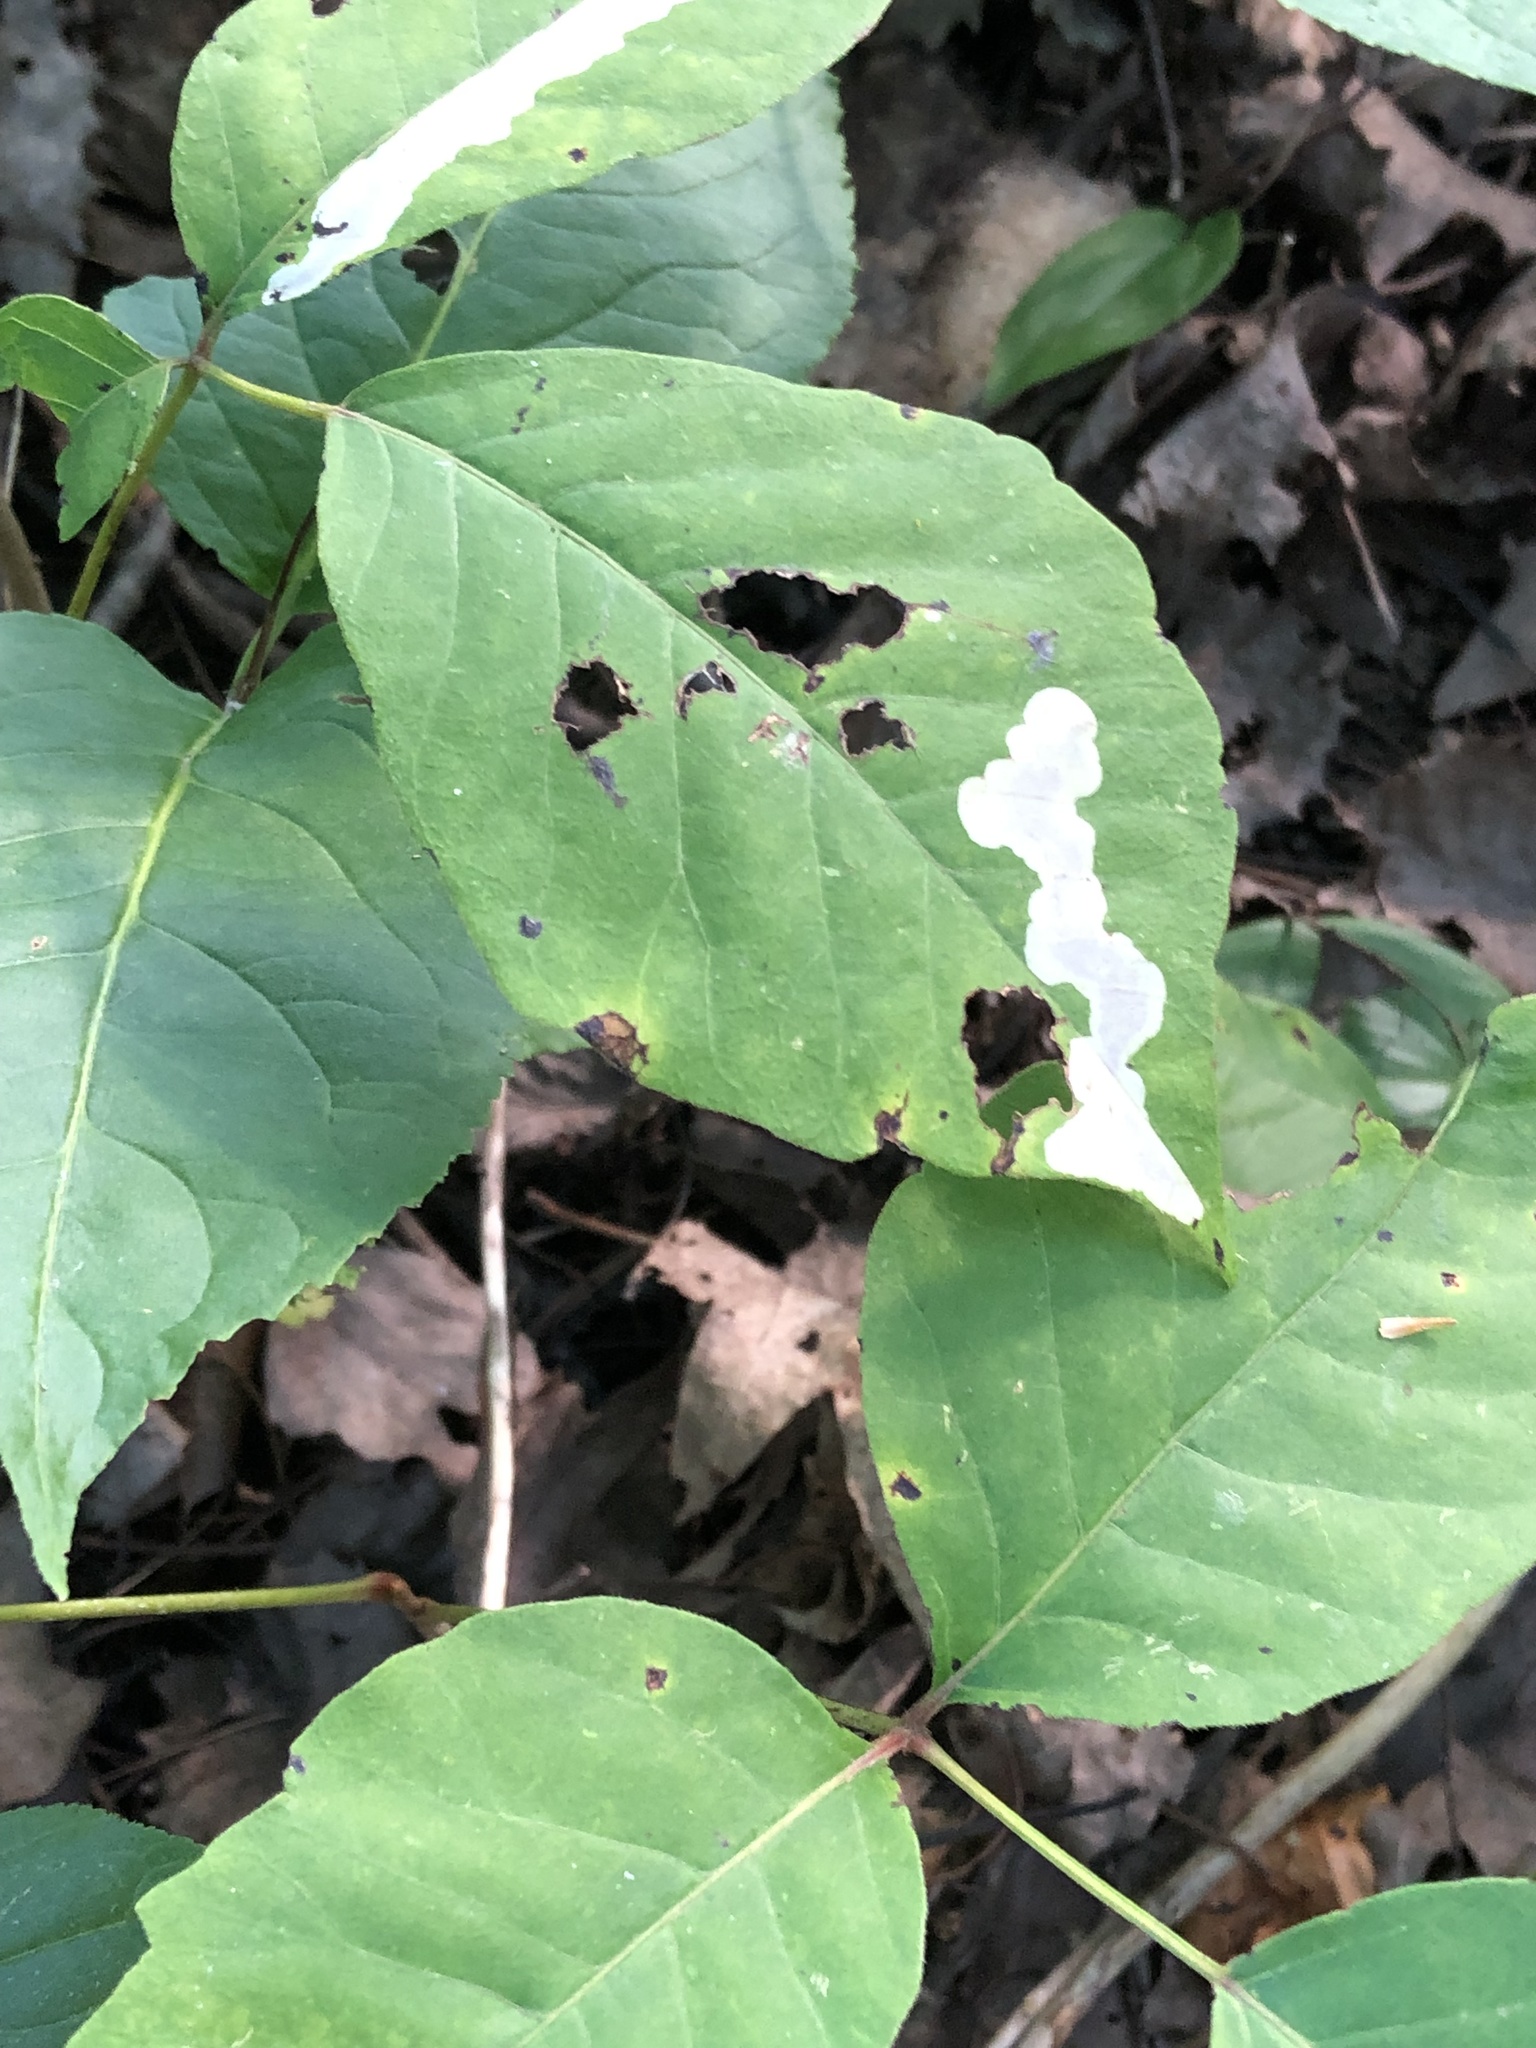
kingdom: Animalia
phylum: Arthropoda
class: Insecta
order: Lepidoptera
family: Gracillariidae
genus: Cameraria
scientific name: Cameraria guttifinitella
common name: Poison ivy leaf-miner moth
